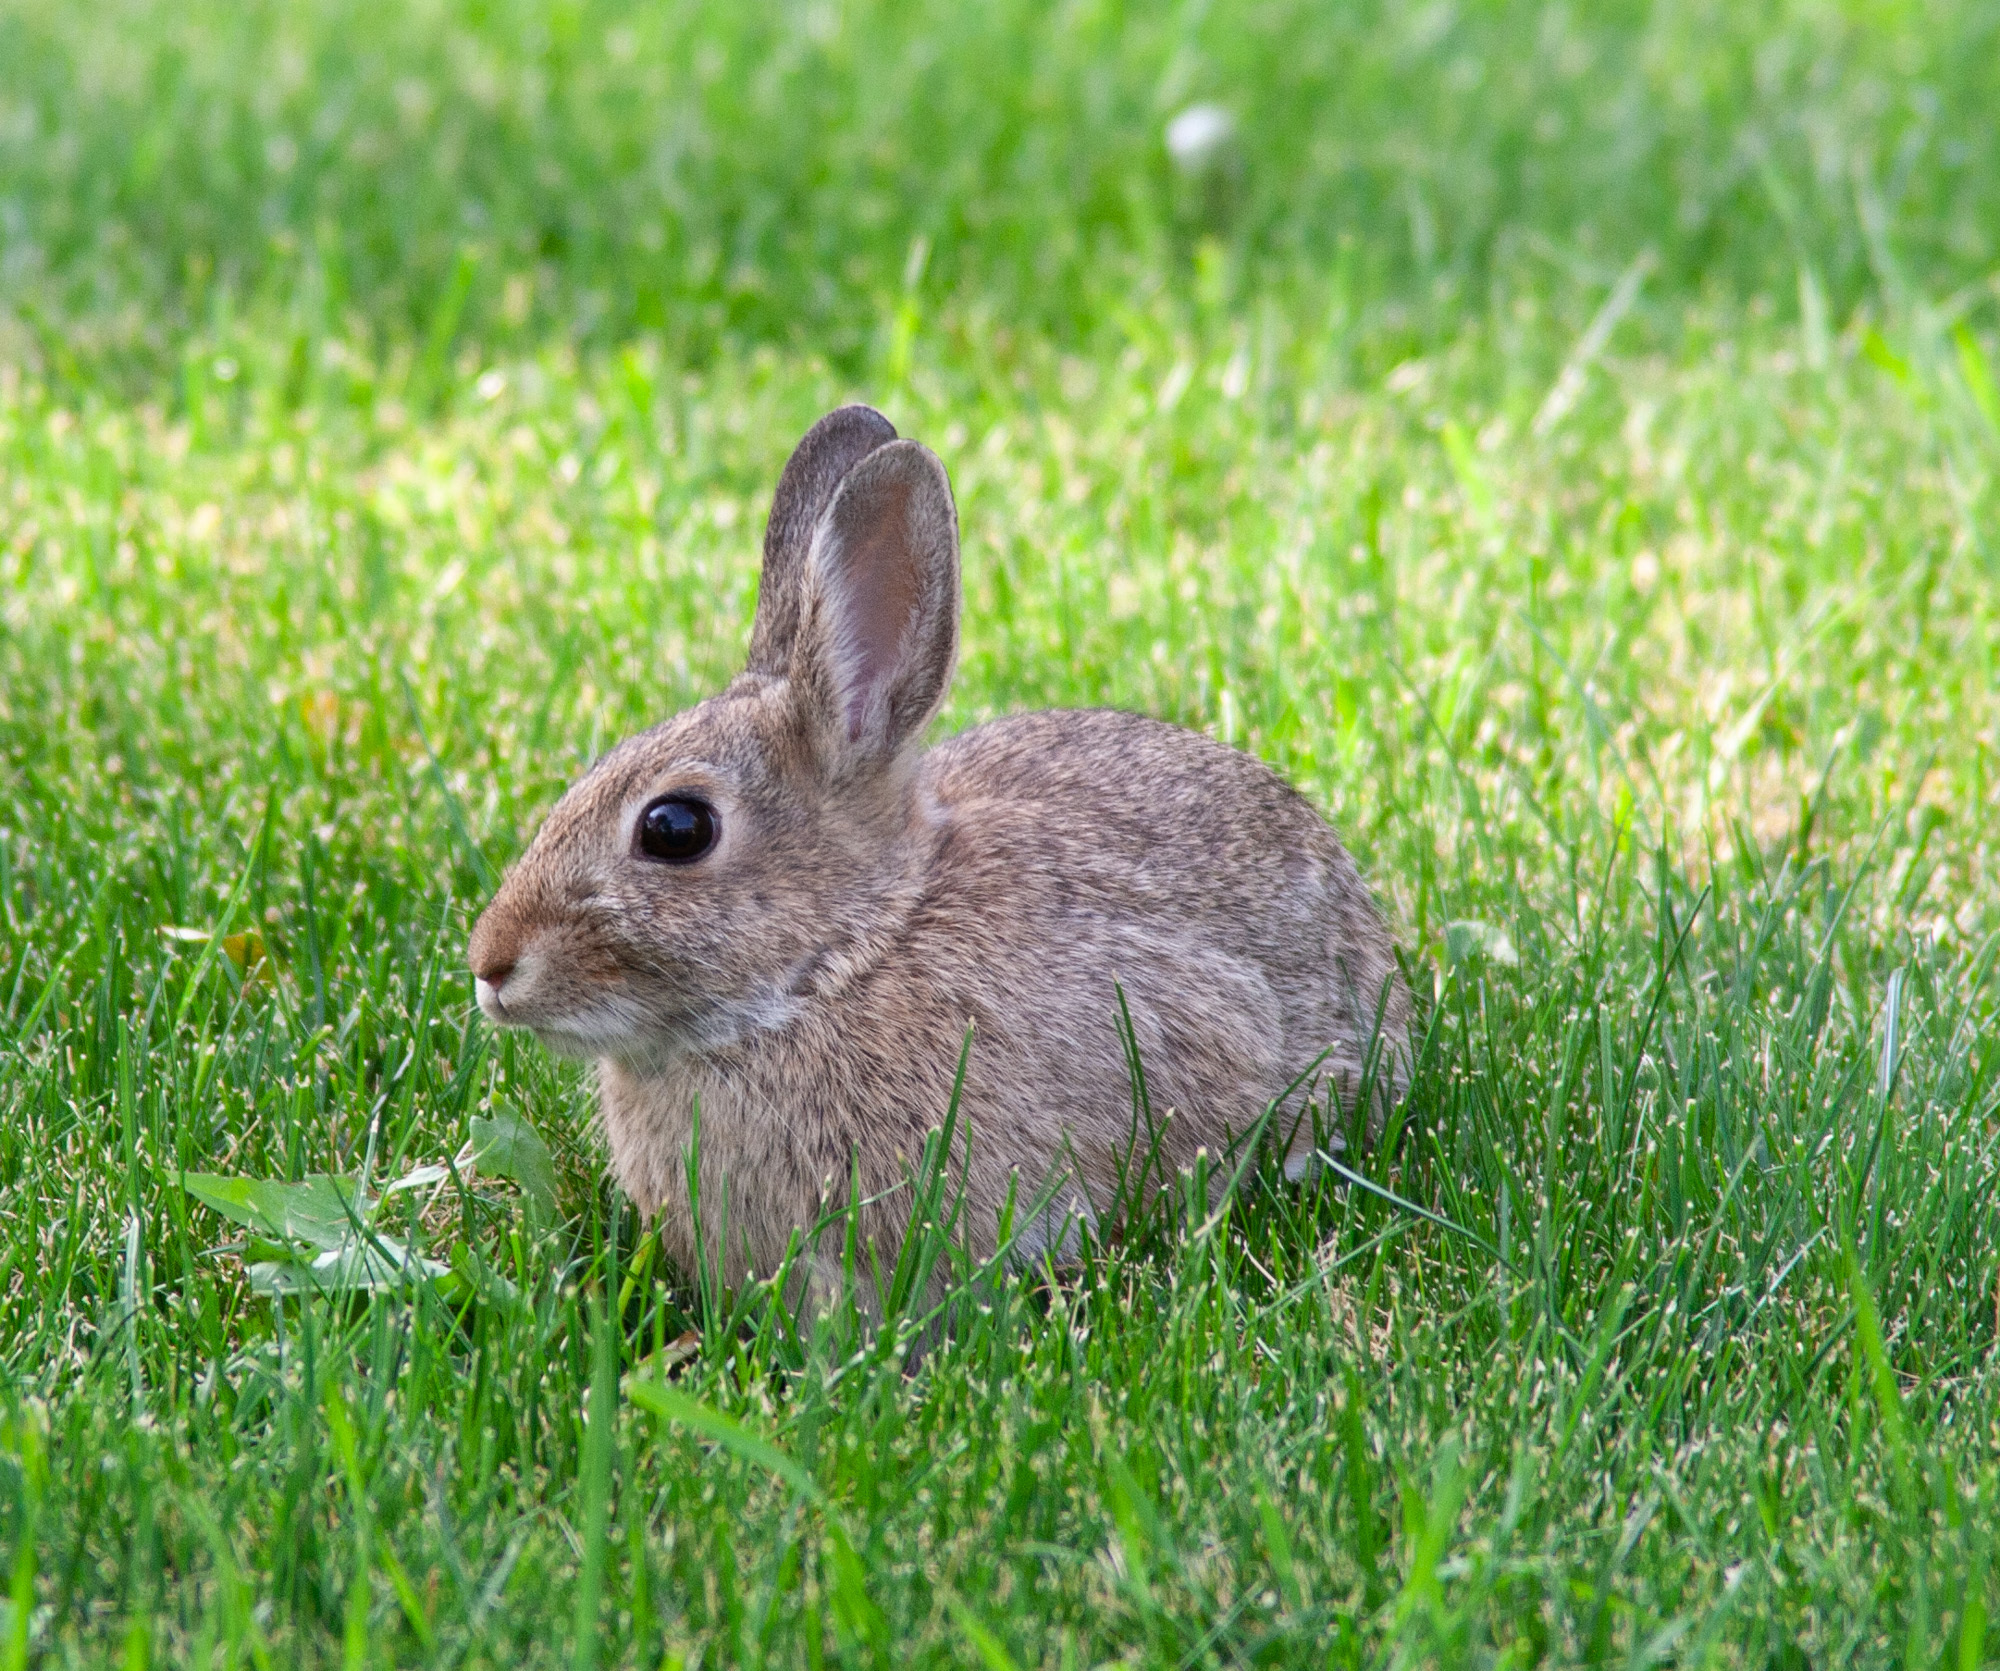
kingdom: Animalia
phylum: Chordata
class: Mammalia
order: Lagomorpha
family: Leporidae
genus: Sylvilagus
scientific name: Sylvilagus nuttallii
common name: Mountain cottontail
